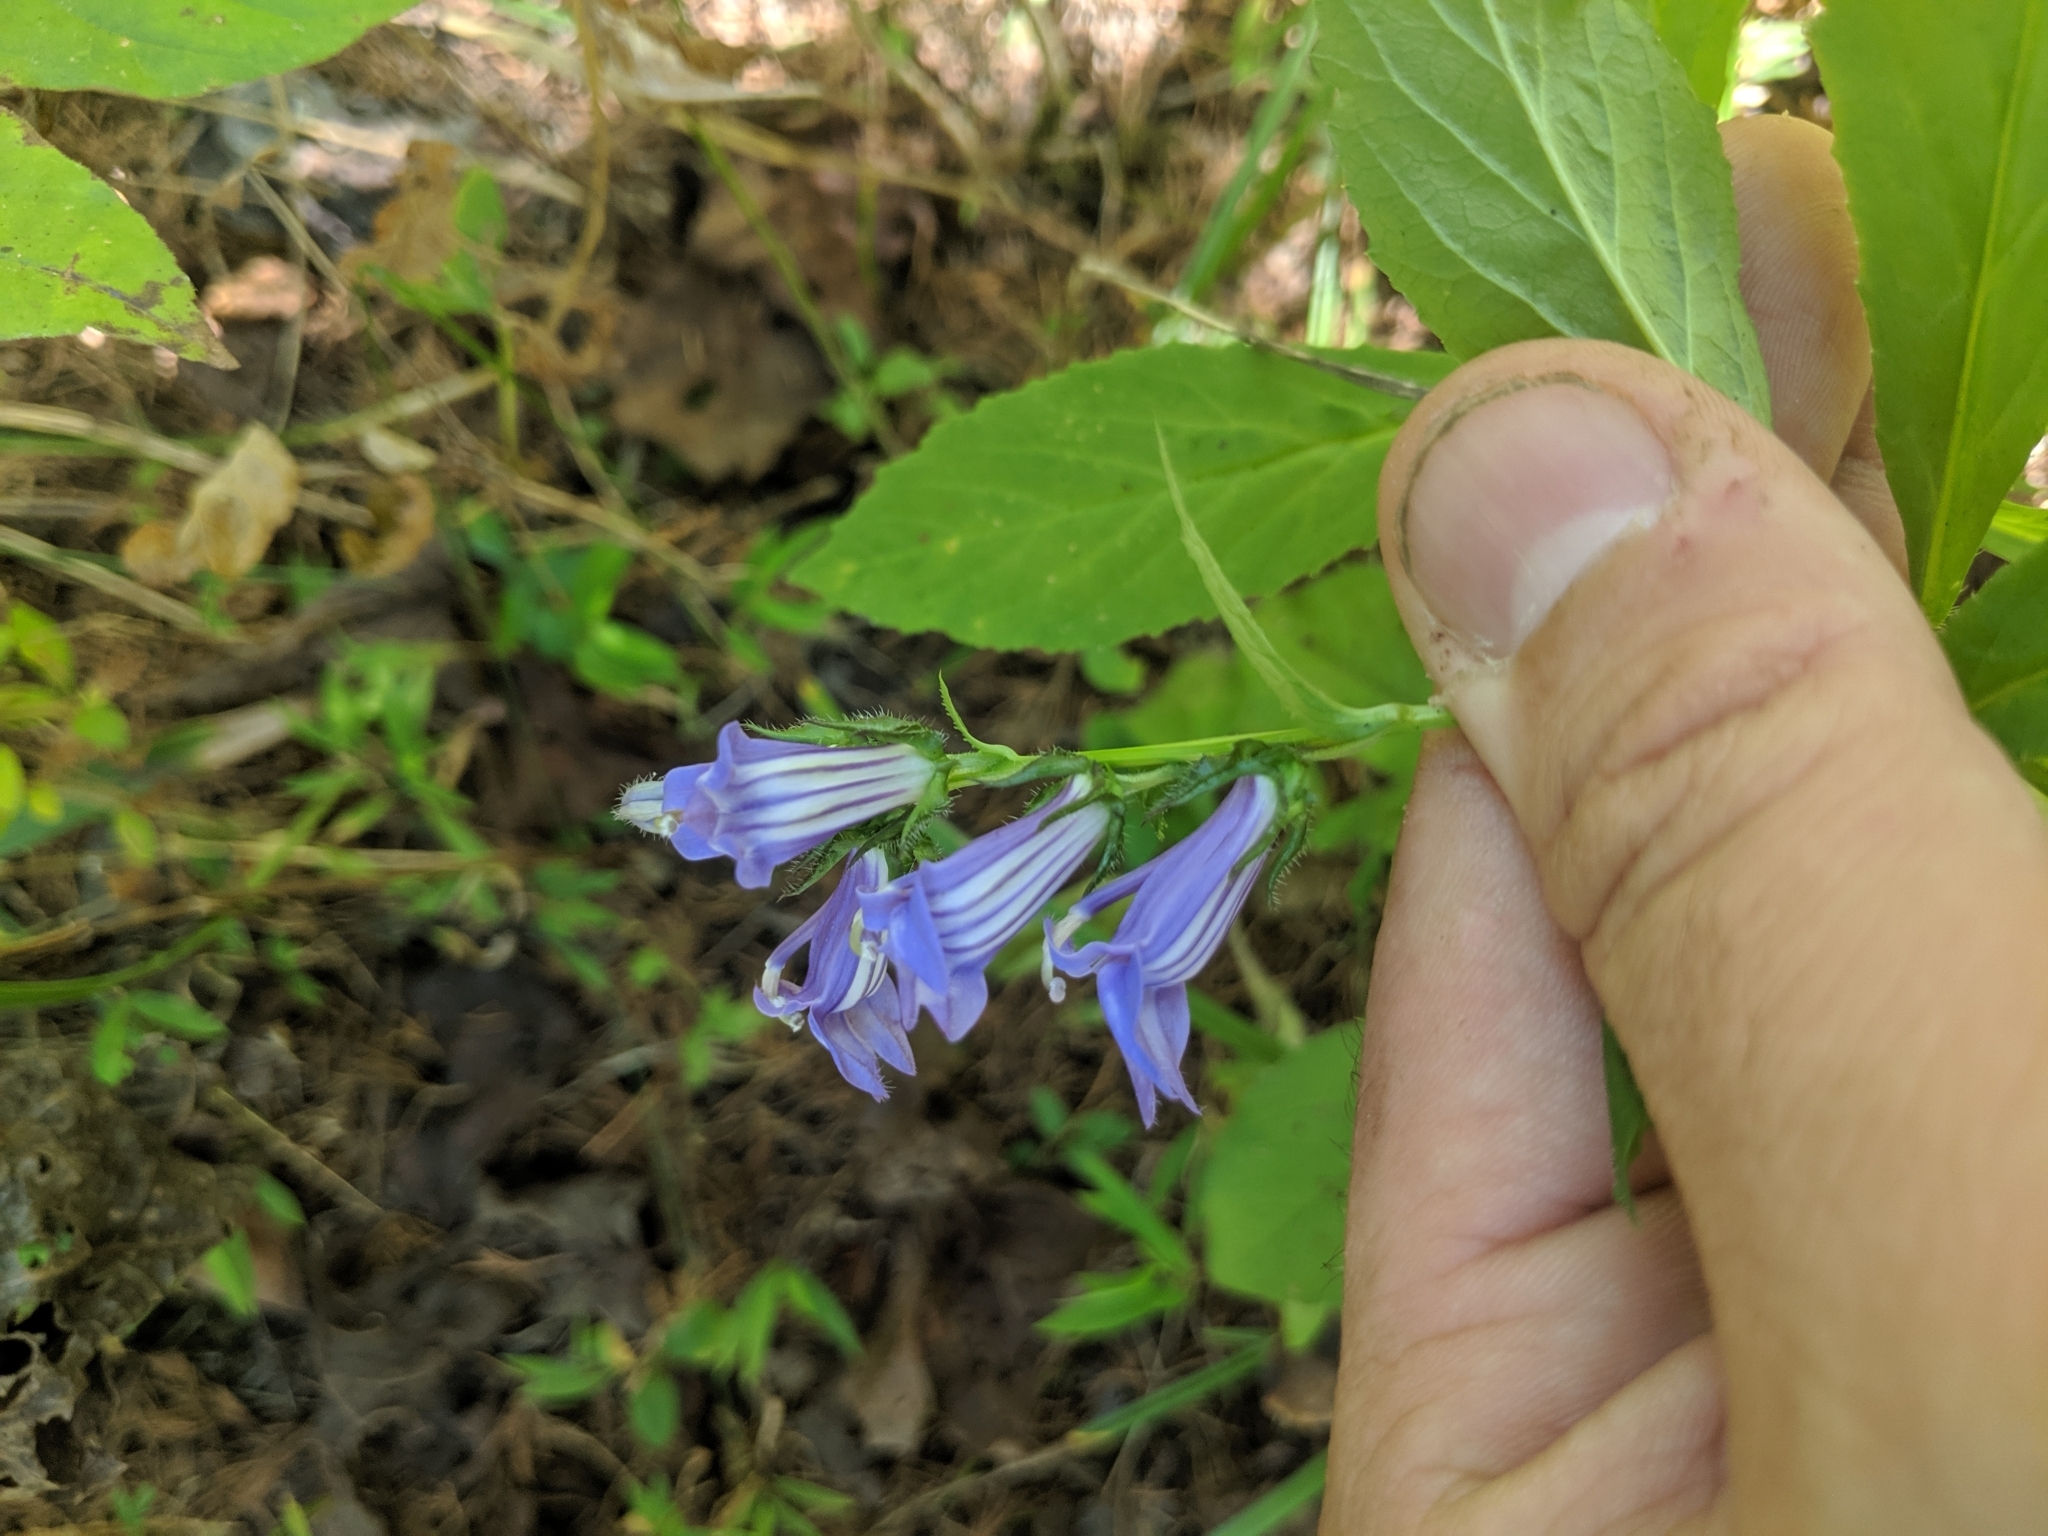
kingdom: Plantae
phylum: Tracheophyta
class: Magnoliopsida
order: Asterales
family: Campanulaceae
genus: Lobelia
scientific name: Lobelia siphilitica
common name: Great lobelia
